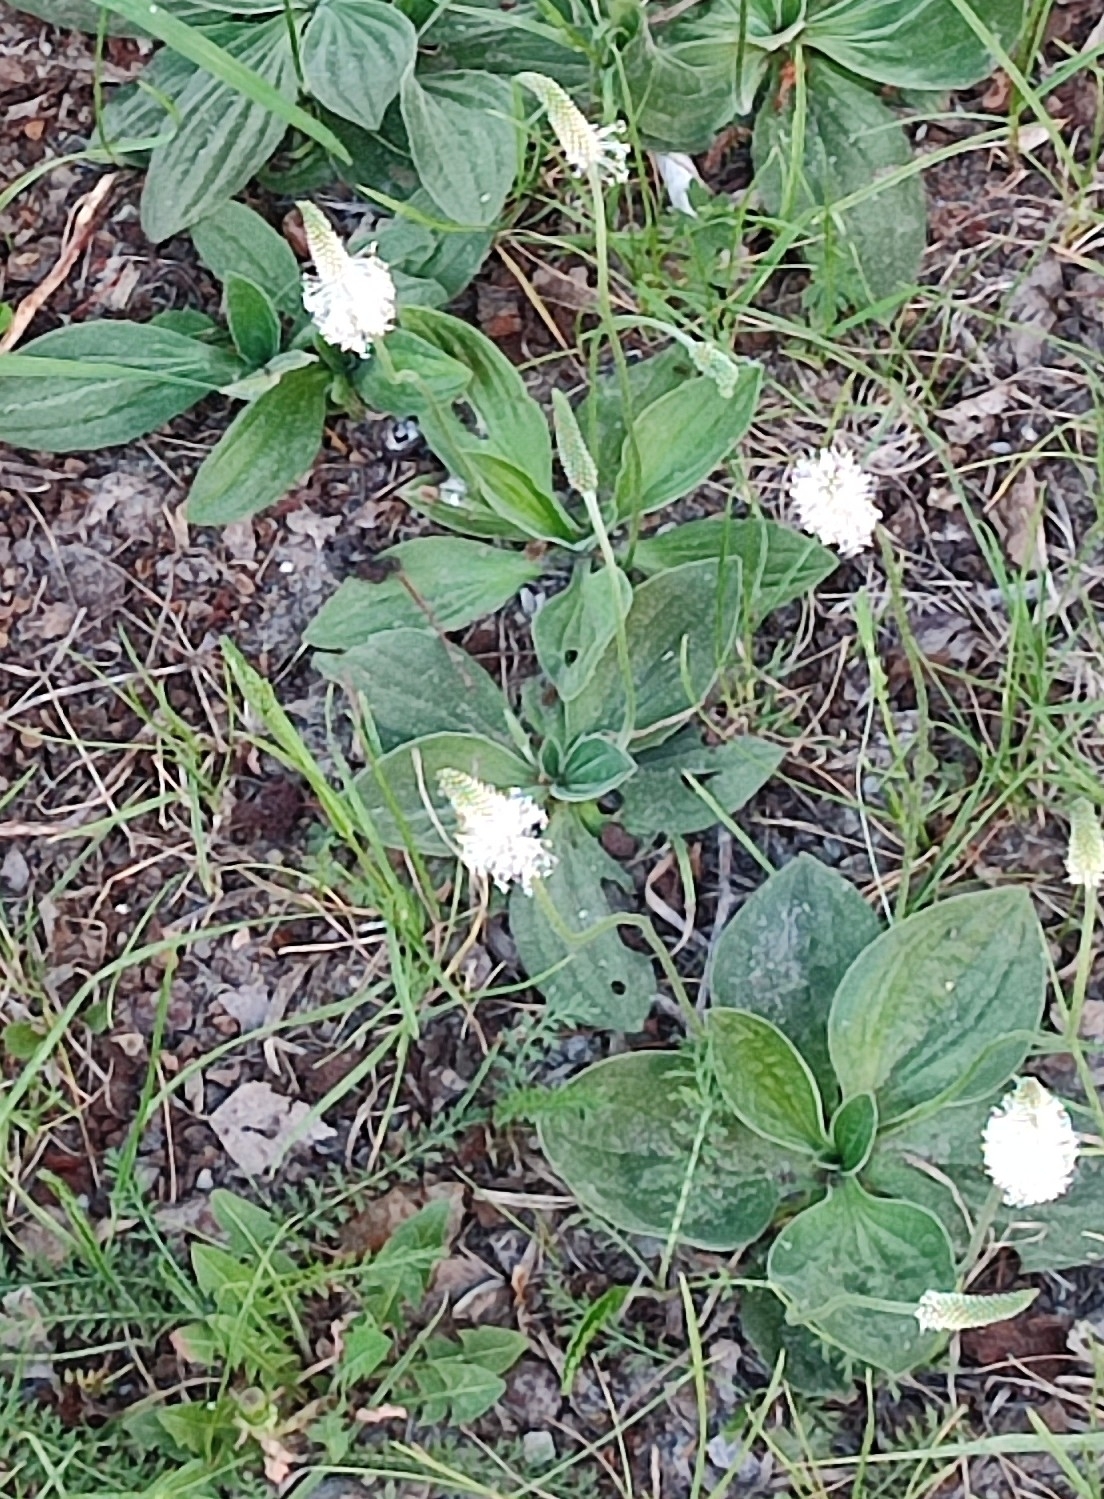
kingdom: Plantae
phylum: Tracheophyta
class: Magnoliopsida
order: Lamiales
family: Plantaginaceae
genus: Plantago
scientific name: Plantago media
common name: Hoary plantain
